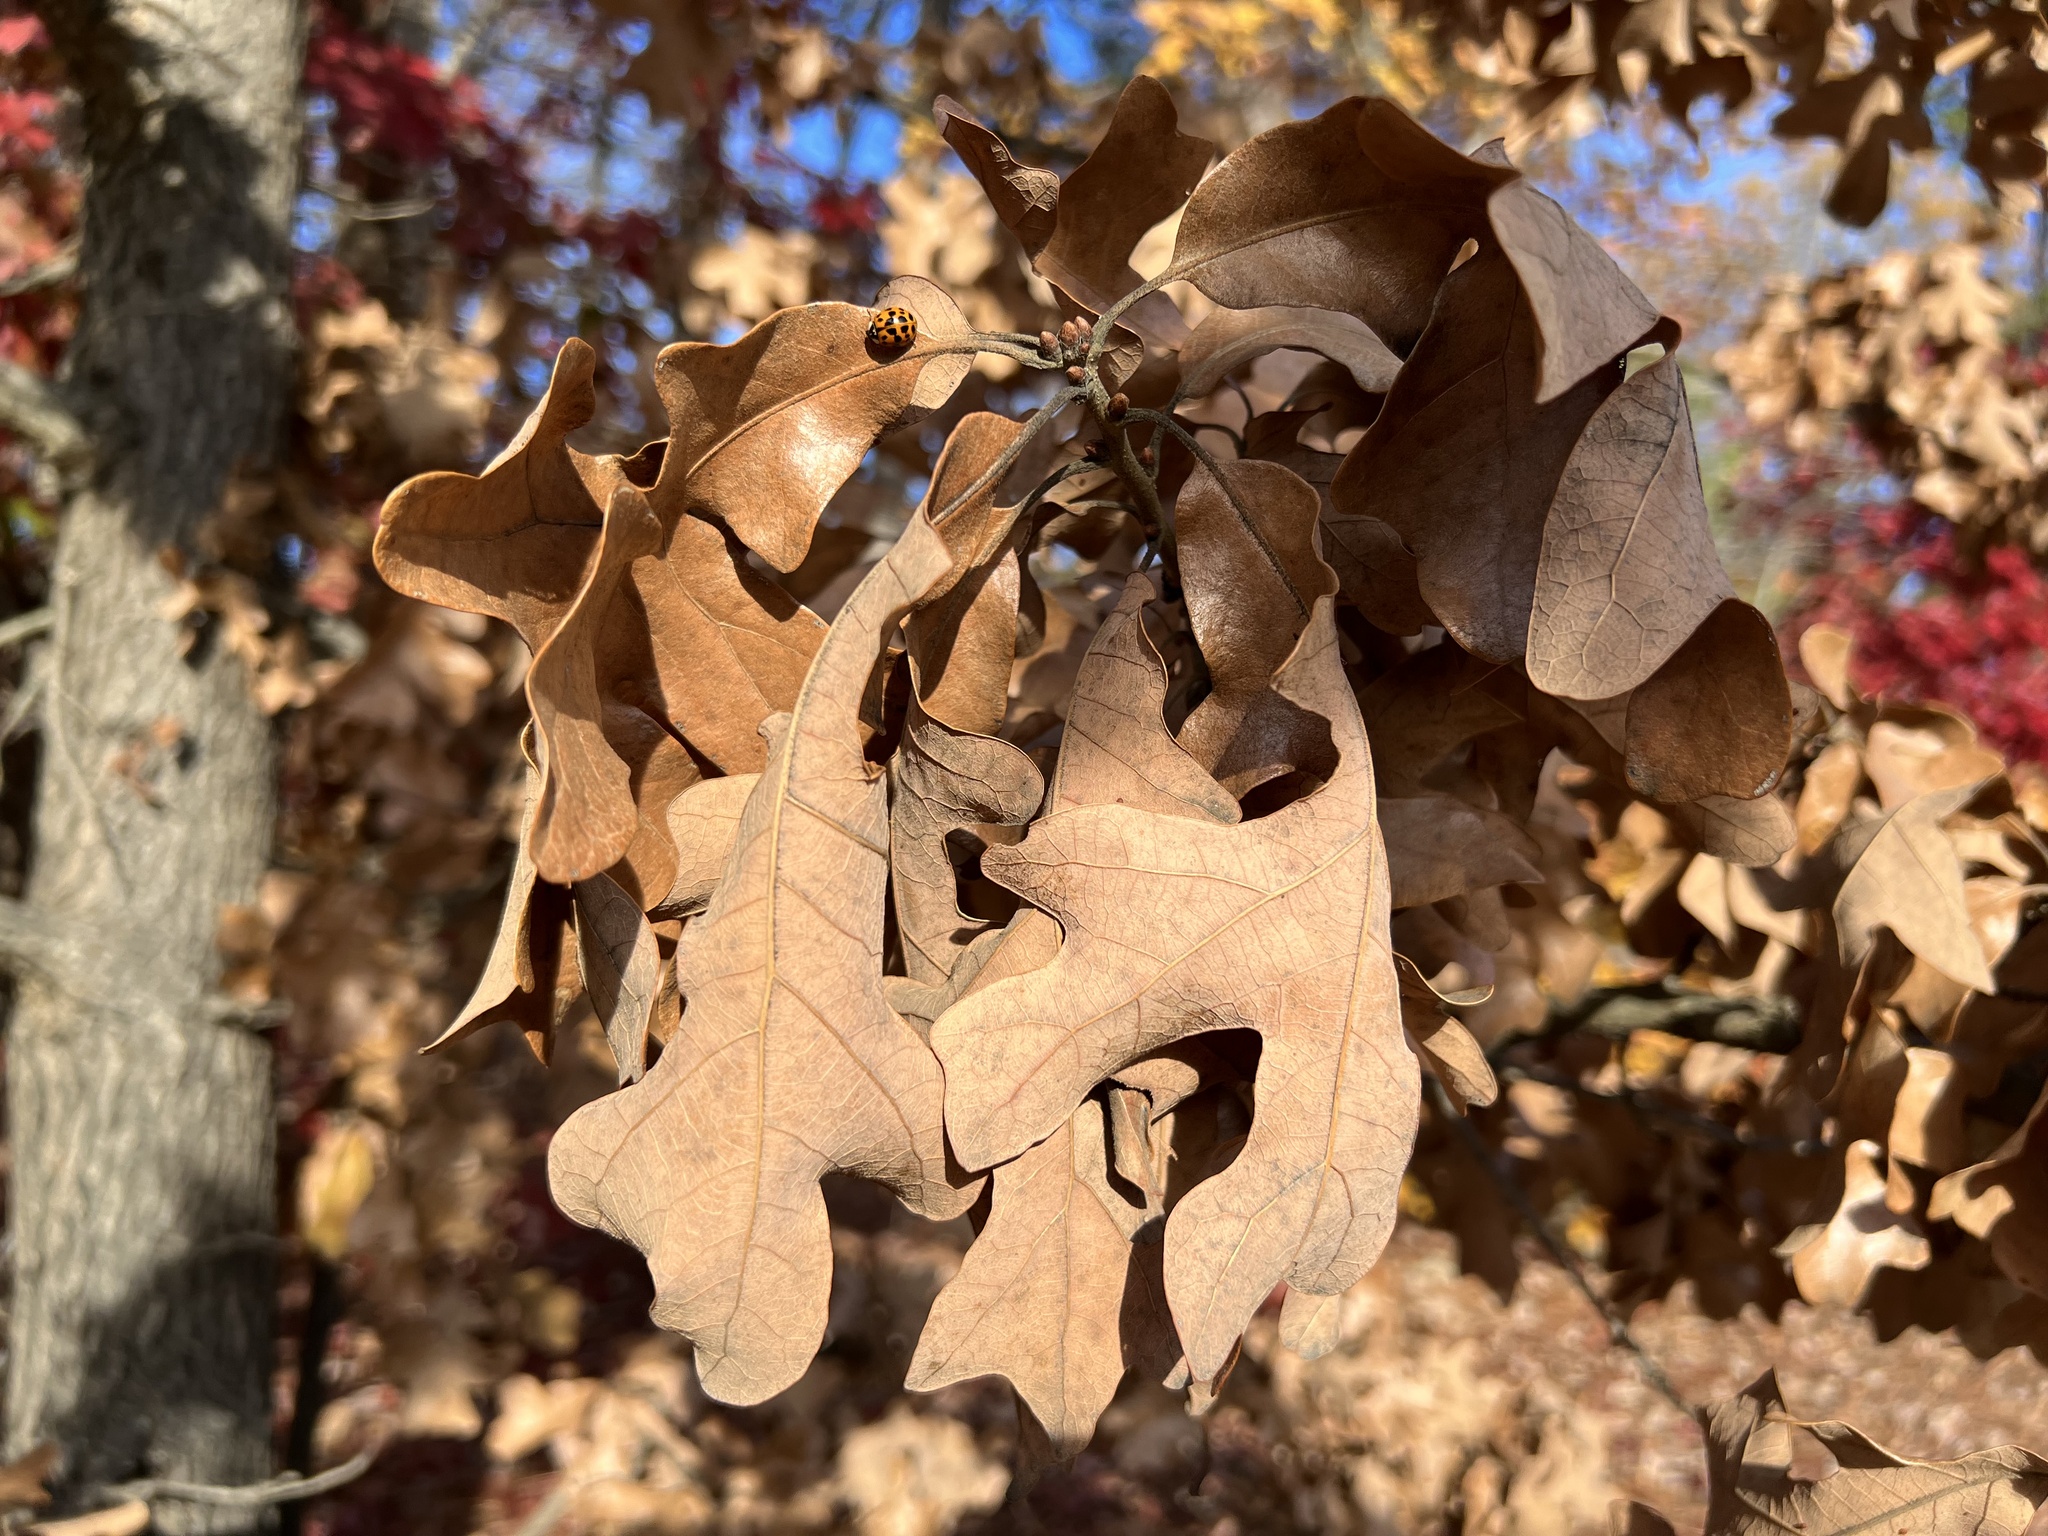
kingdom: Plantae
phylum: Tracheophyta
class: Magnoliopsida
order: Fagales
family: Fagaceae
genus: Quercus
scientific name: Quercus stellata
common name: Post oak
